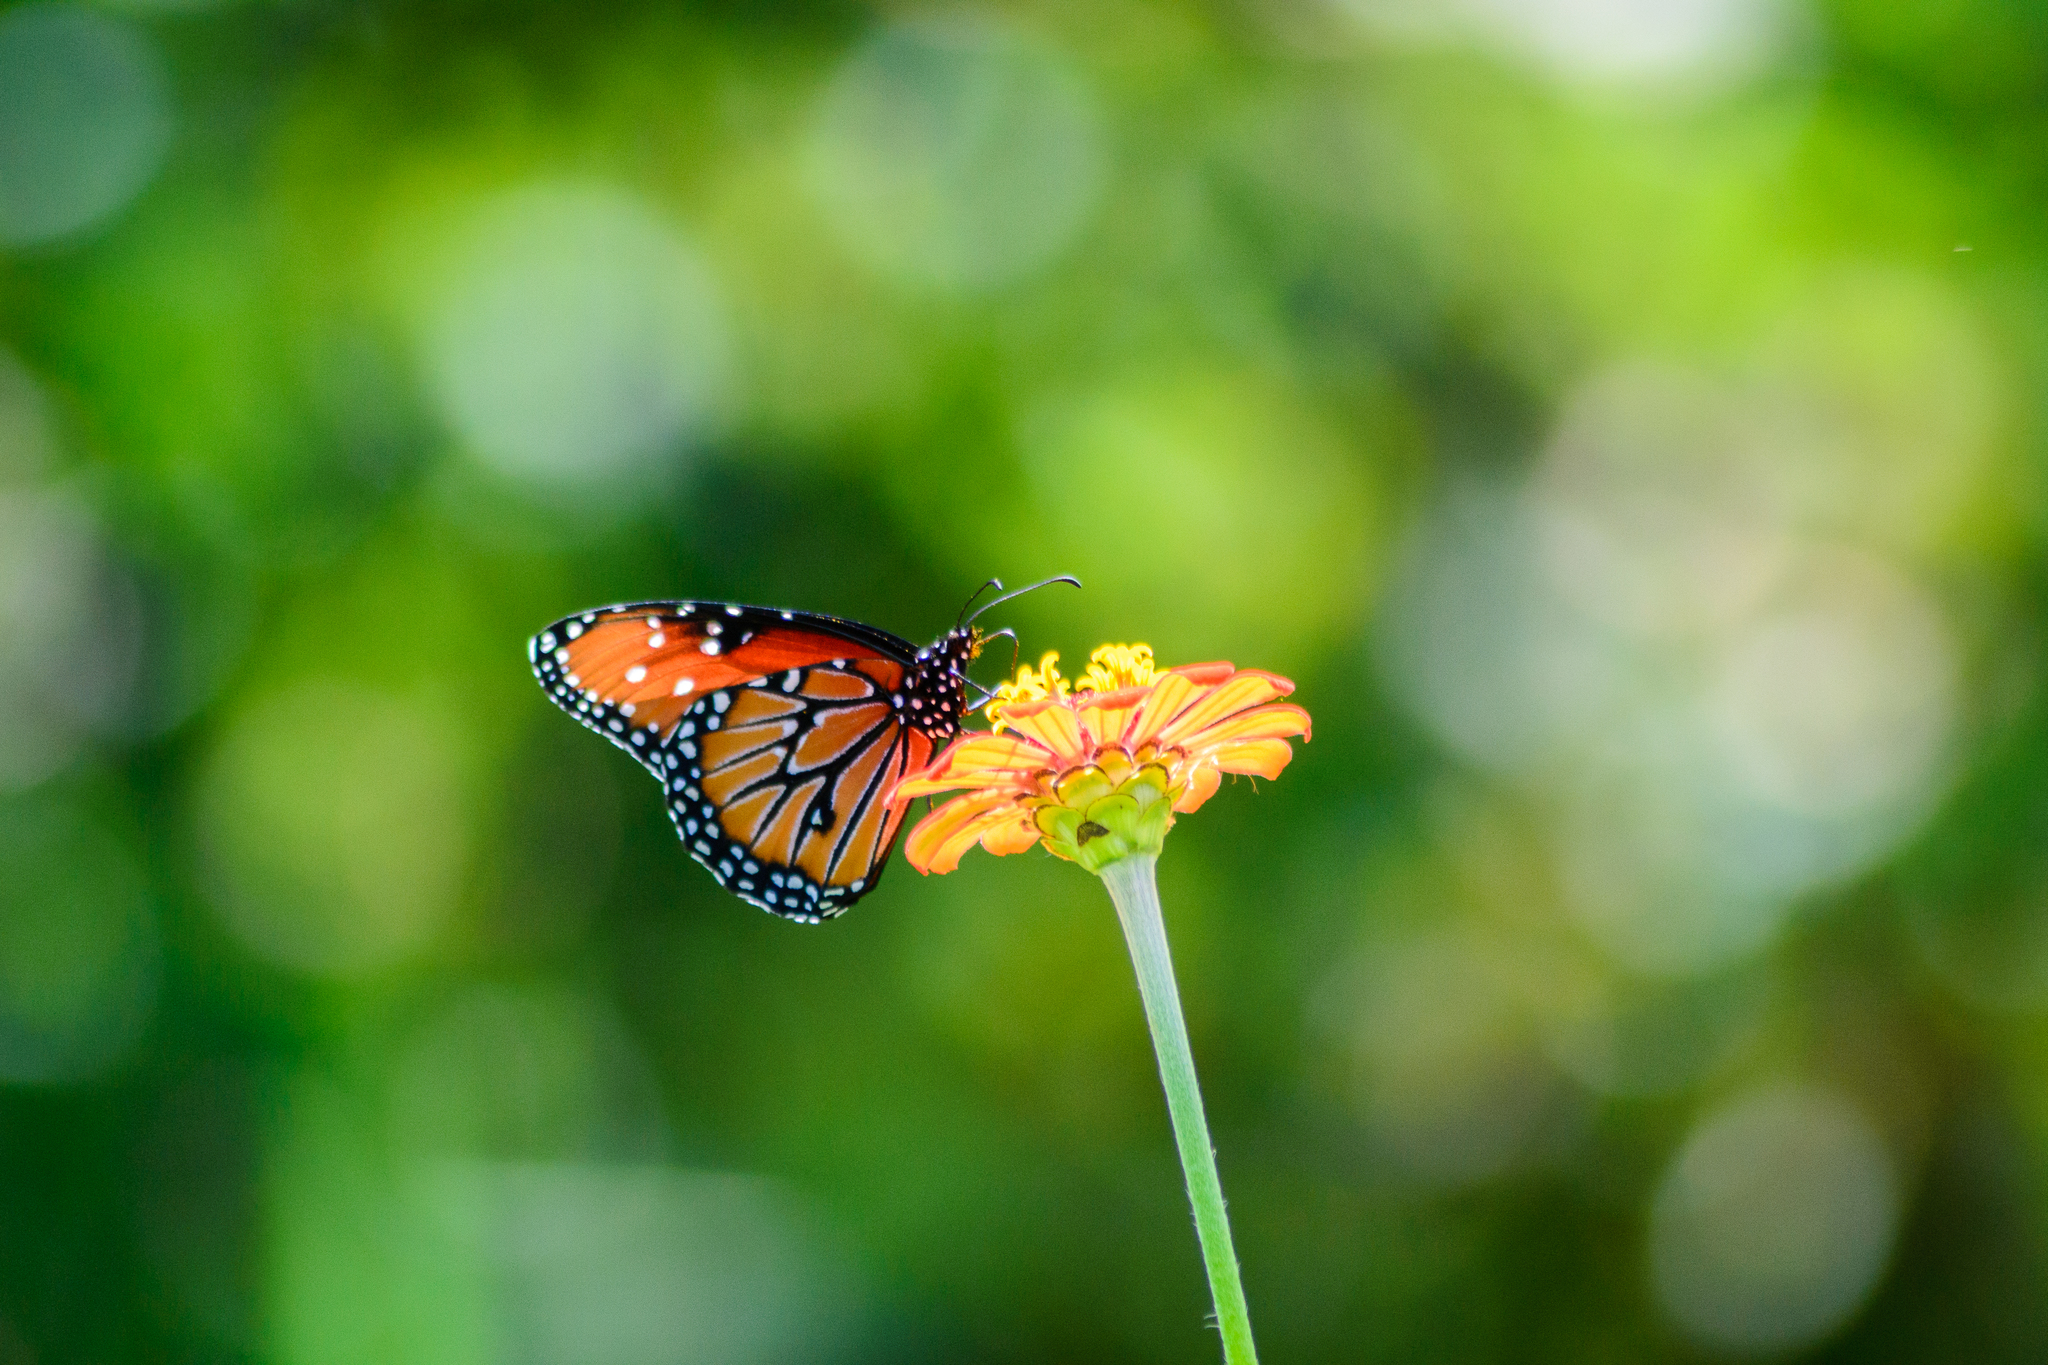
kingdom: Animalia
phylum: Arthropoda
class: Insecta
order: Lepidoptera
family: Nymphalidae
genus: Danaus
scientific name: Danaus gilippus
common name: Queen
